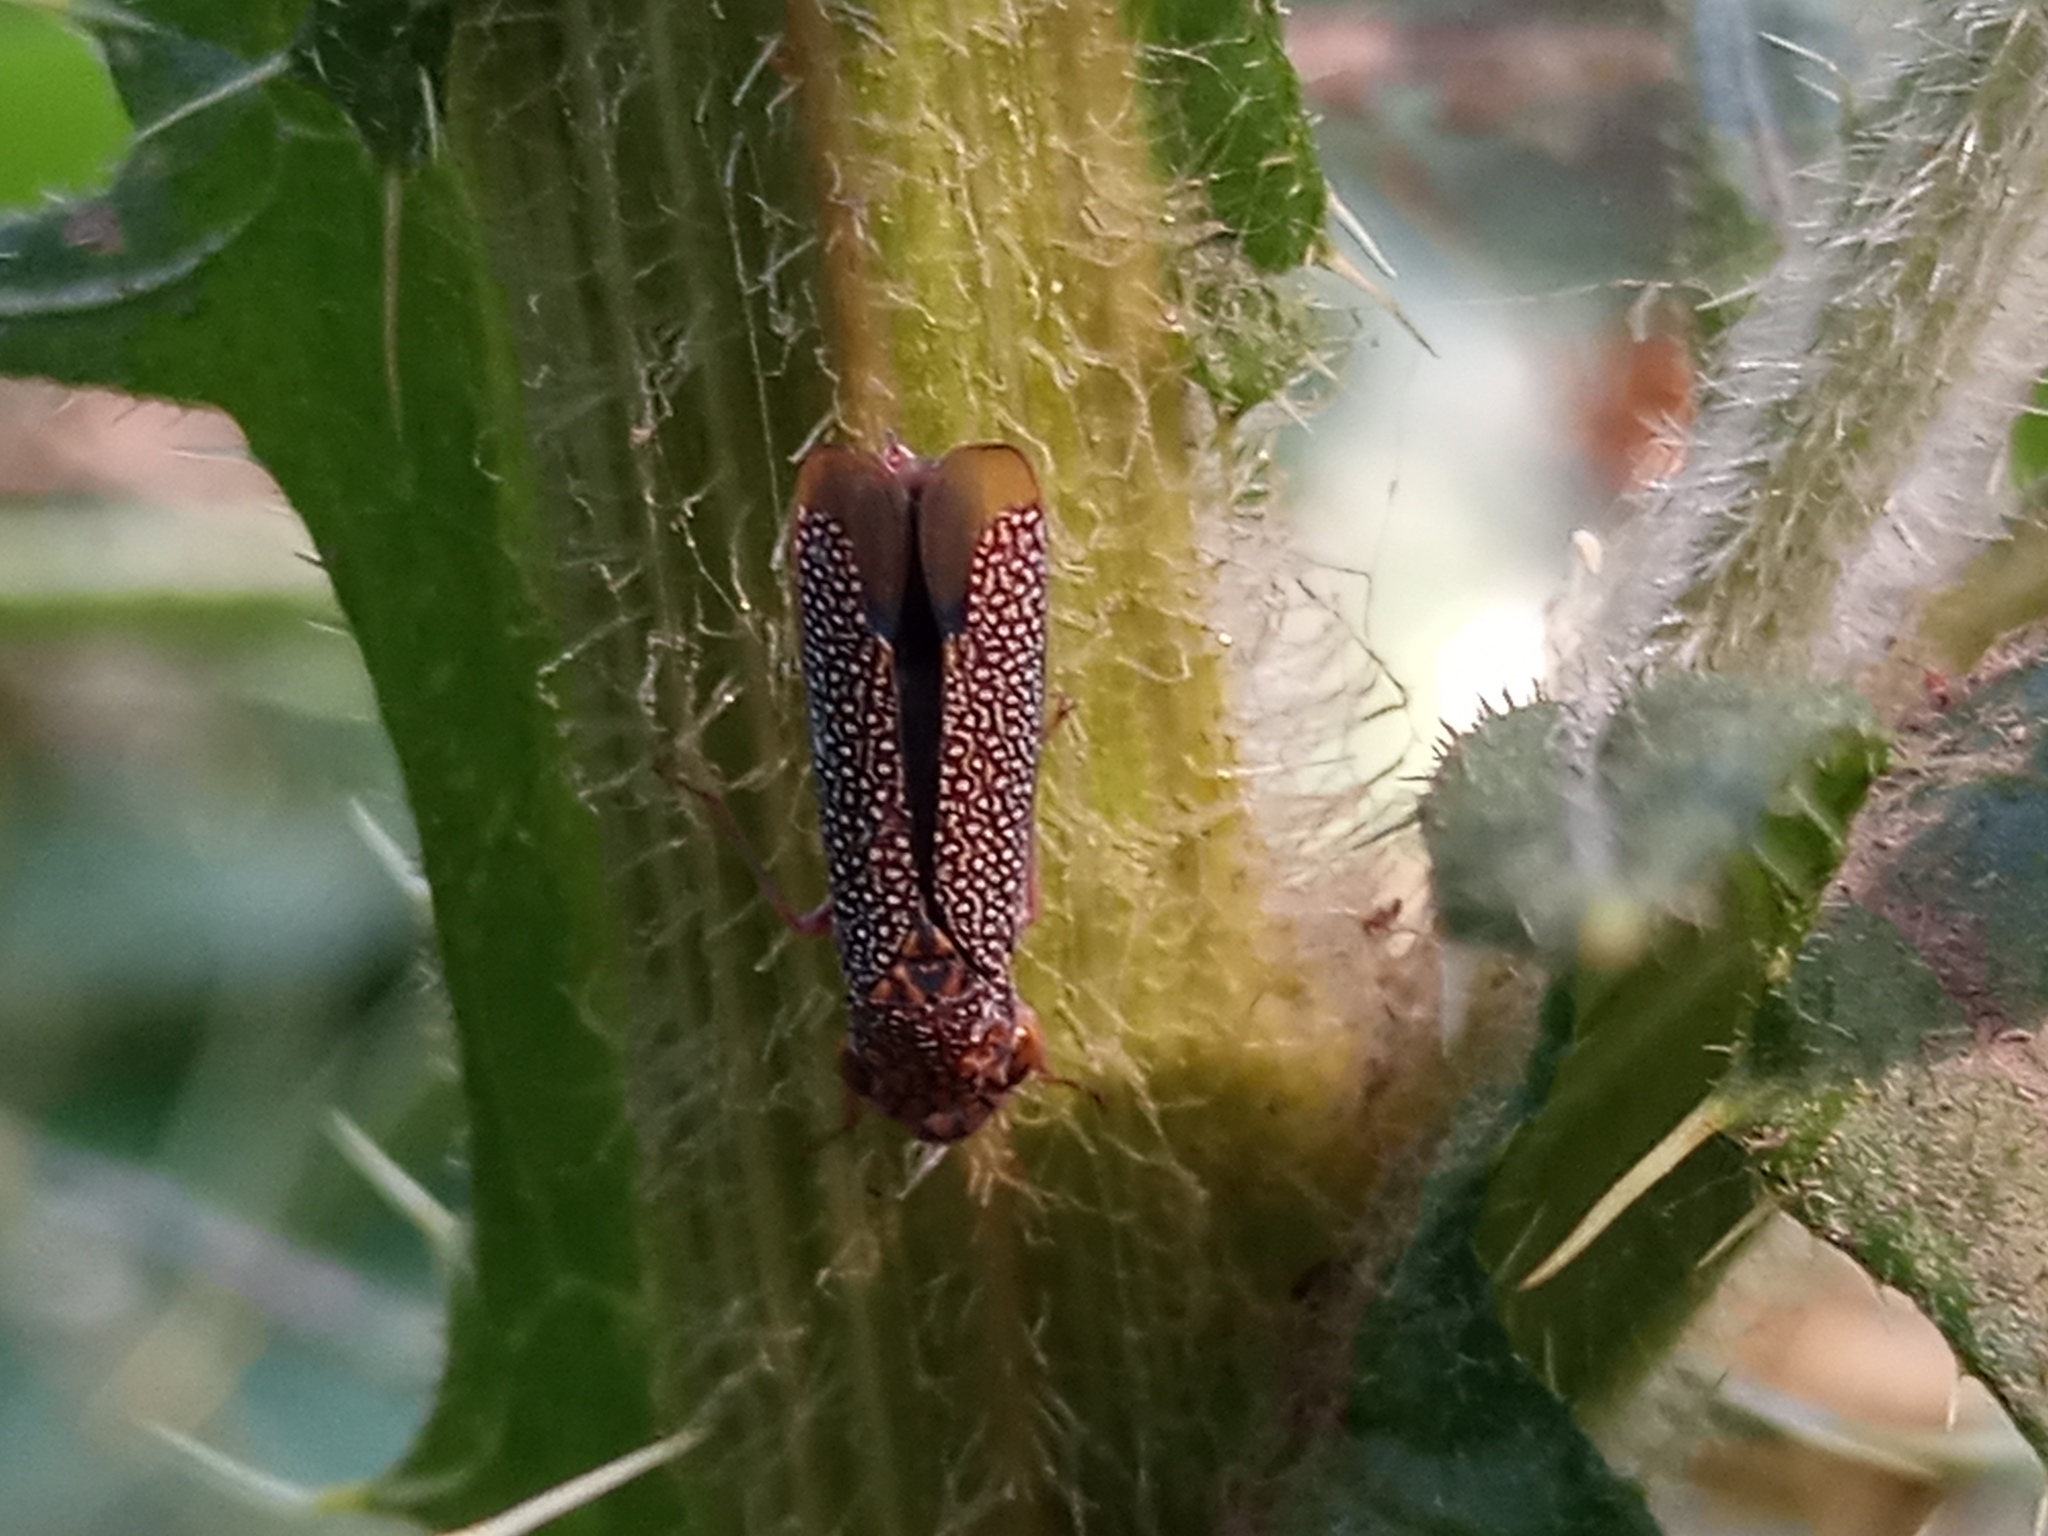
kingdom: Animalia
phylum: Arthropoda
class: Insecta
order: Hemiptera
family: Cicadellidae
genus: Molomea
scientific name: Molomea lineiceps
